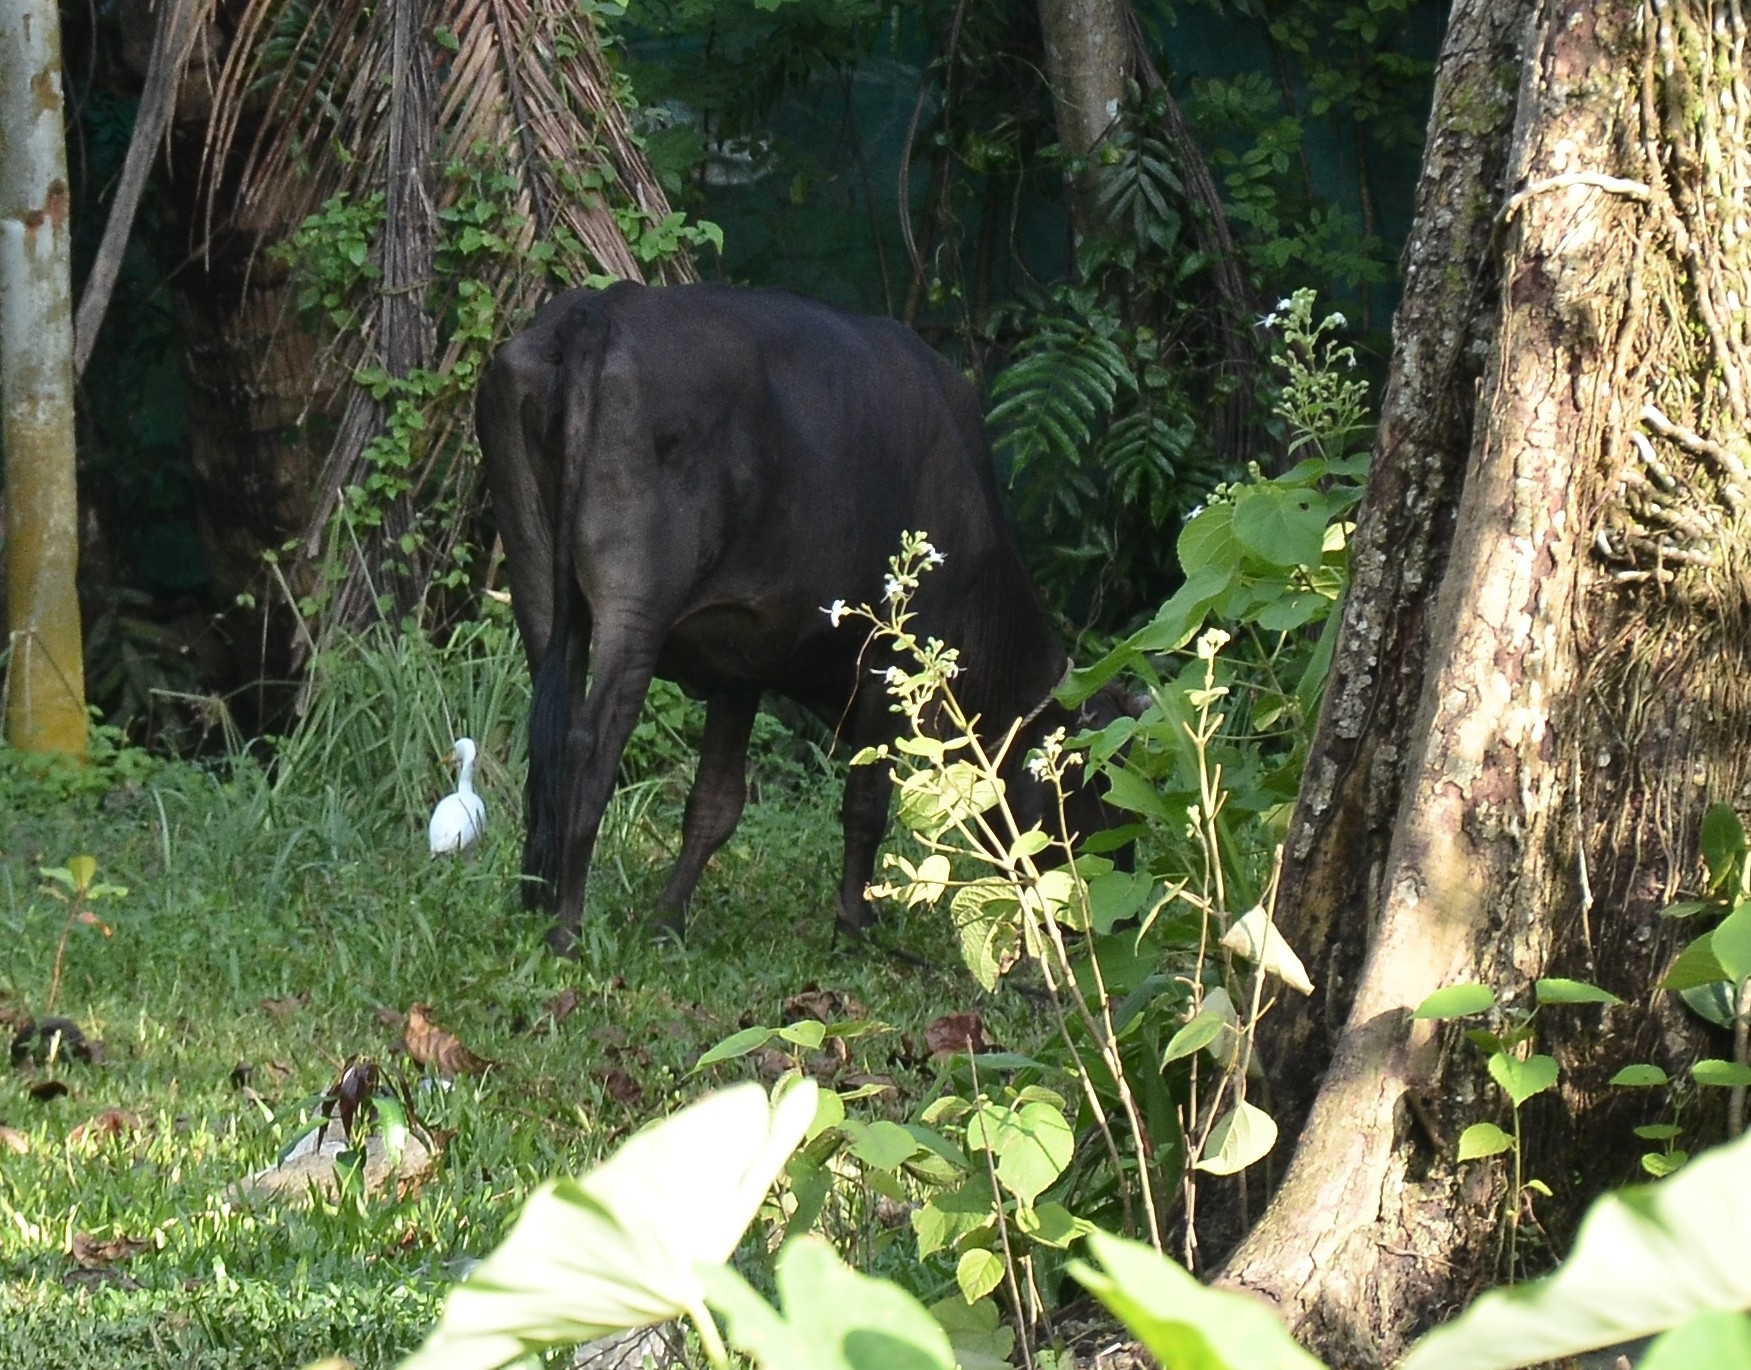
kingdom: Animalia
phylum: Chordata
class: Aves
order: Pelecaniformes
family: Ardeidae
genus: Bubulcus
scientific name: Bubulcus coromandus
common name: Eastern cattle egret
